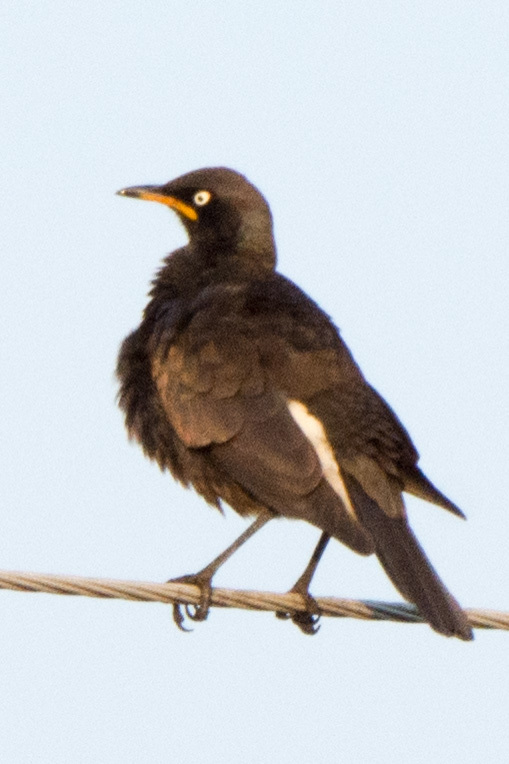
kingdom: Animalia
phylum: Chordata
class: Aves
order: Passeriformes
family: Sturnidae
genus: Lamprotornis
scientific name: Lamprotornis bicolor
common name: Pied starling
